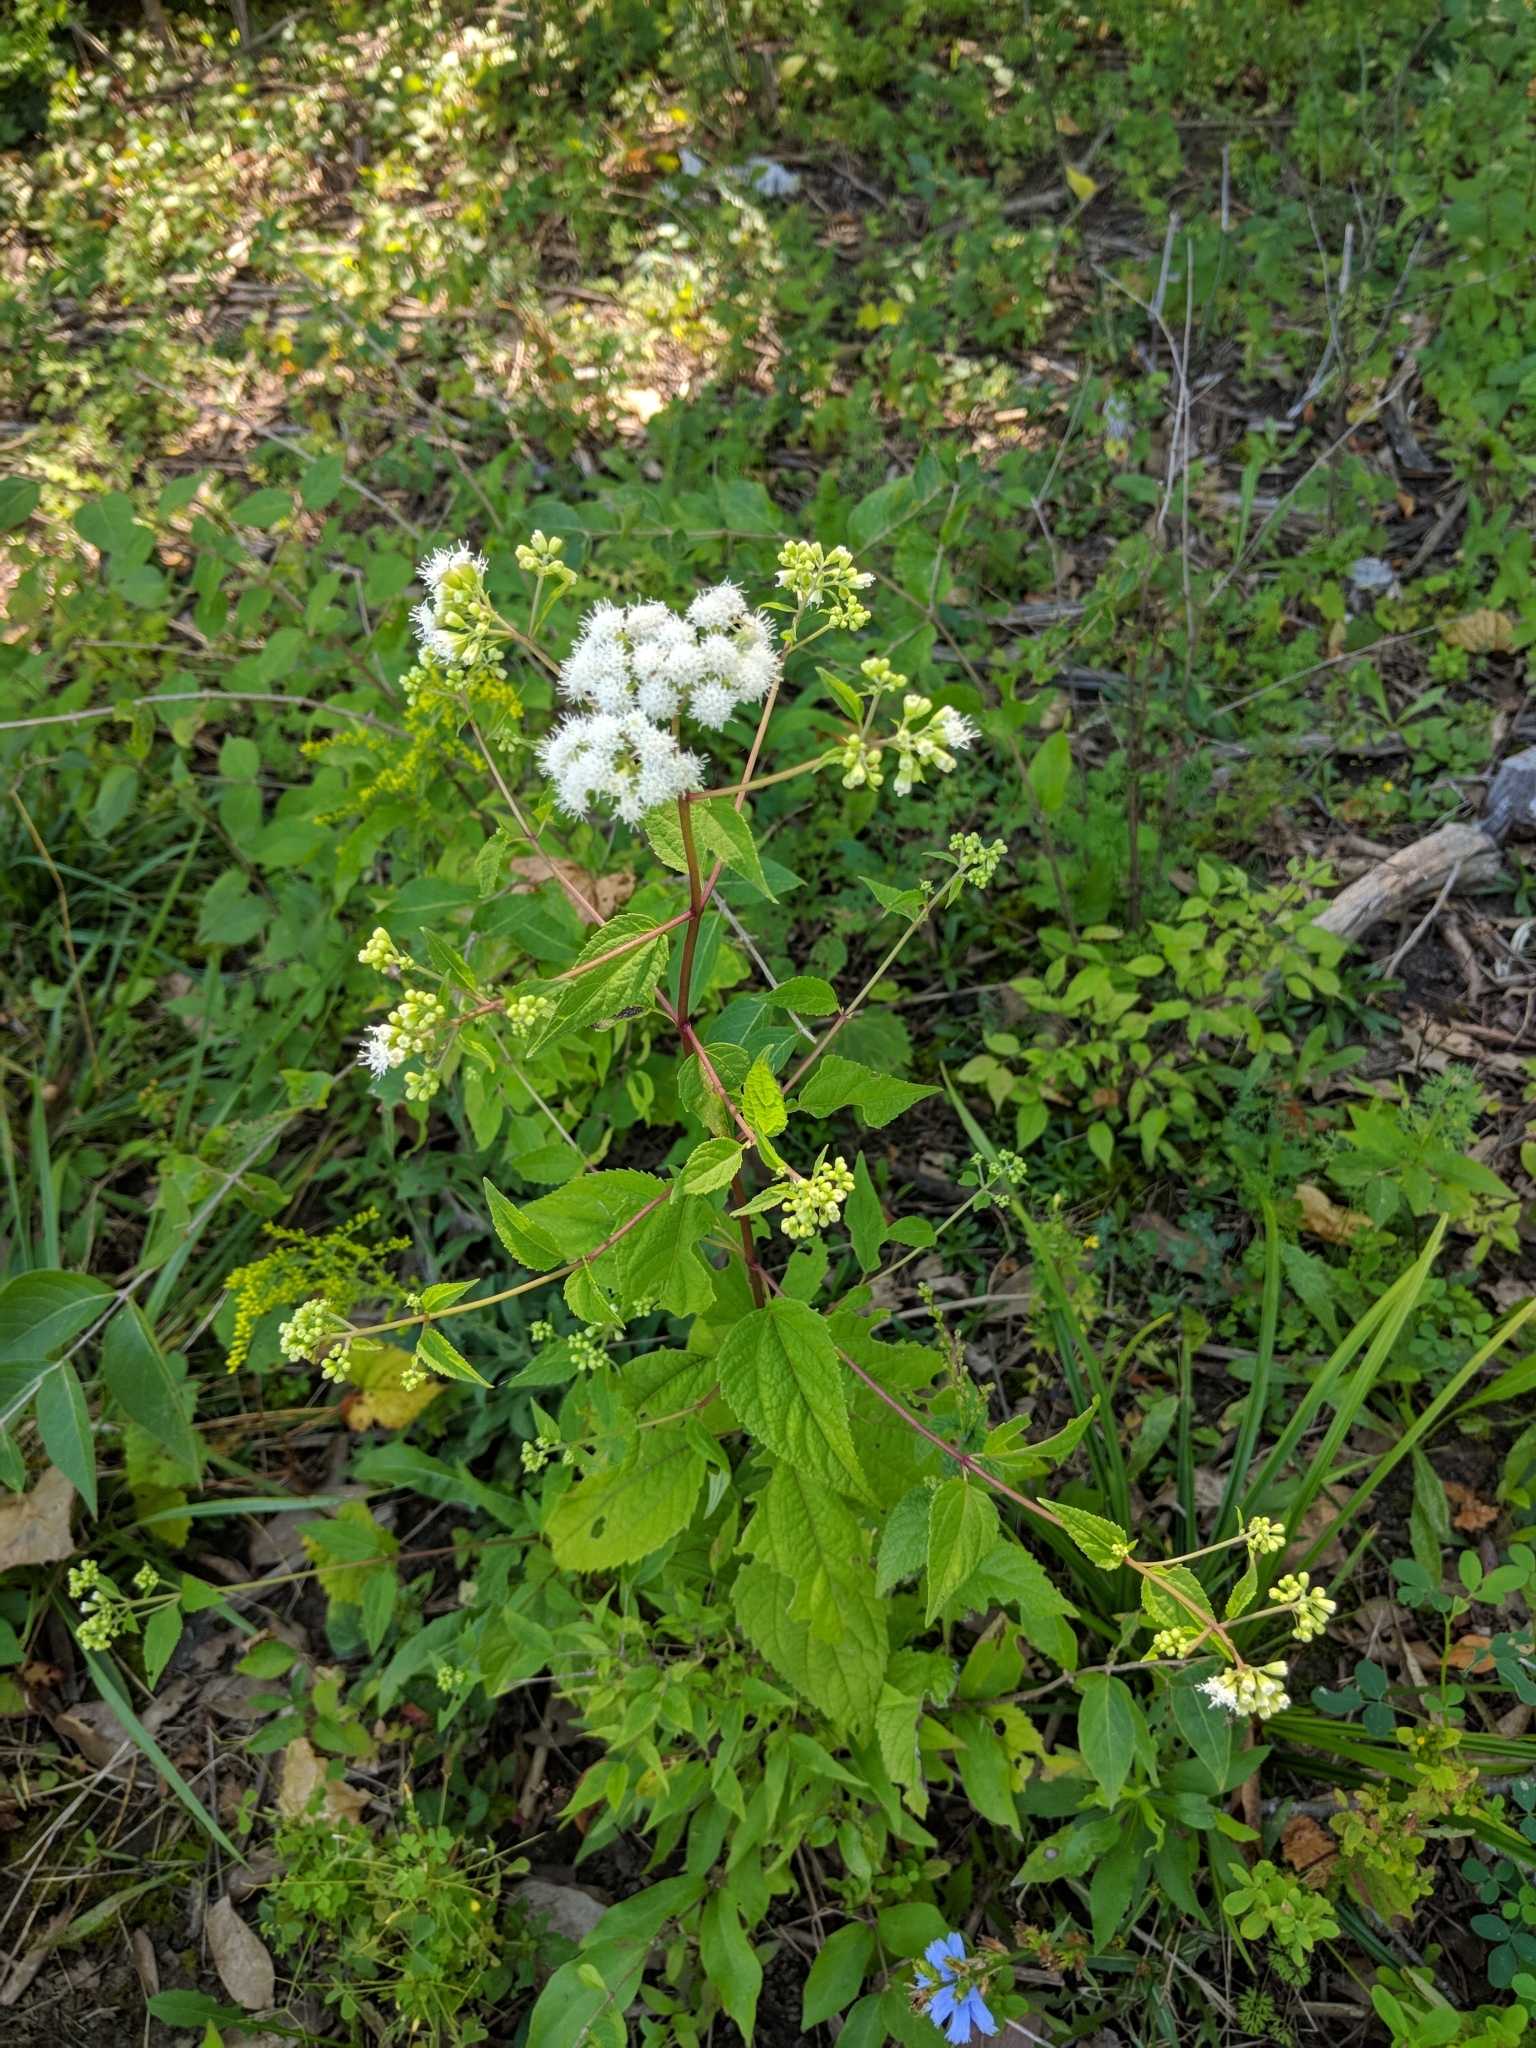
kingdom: Plantae
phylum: Tracheophyta
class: Magnoliopsida
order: Asterales
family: Asteraceae
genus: Ageratina
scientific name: Ageratina altissima
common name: White snakeroot
